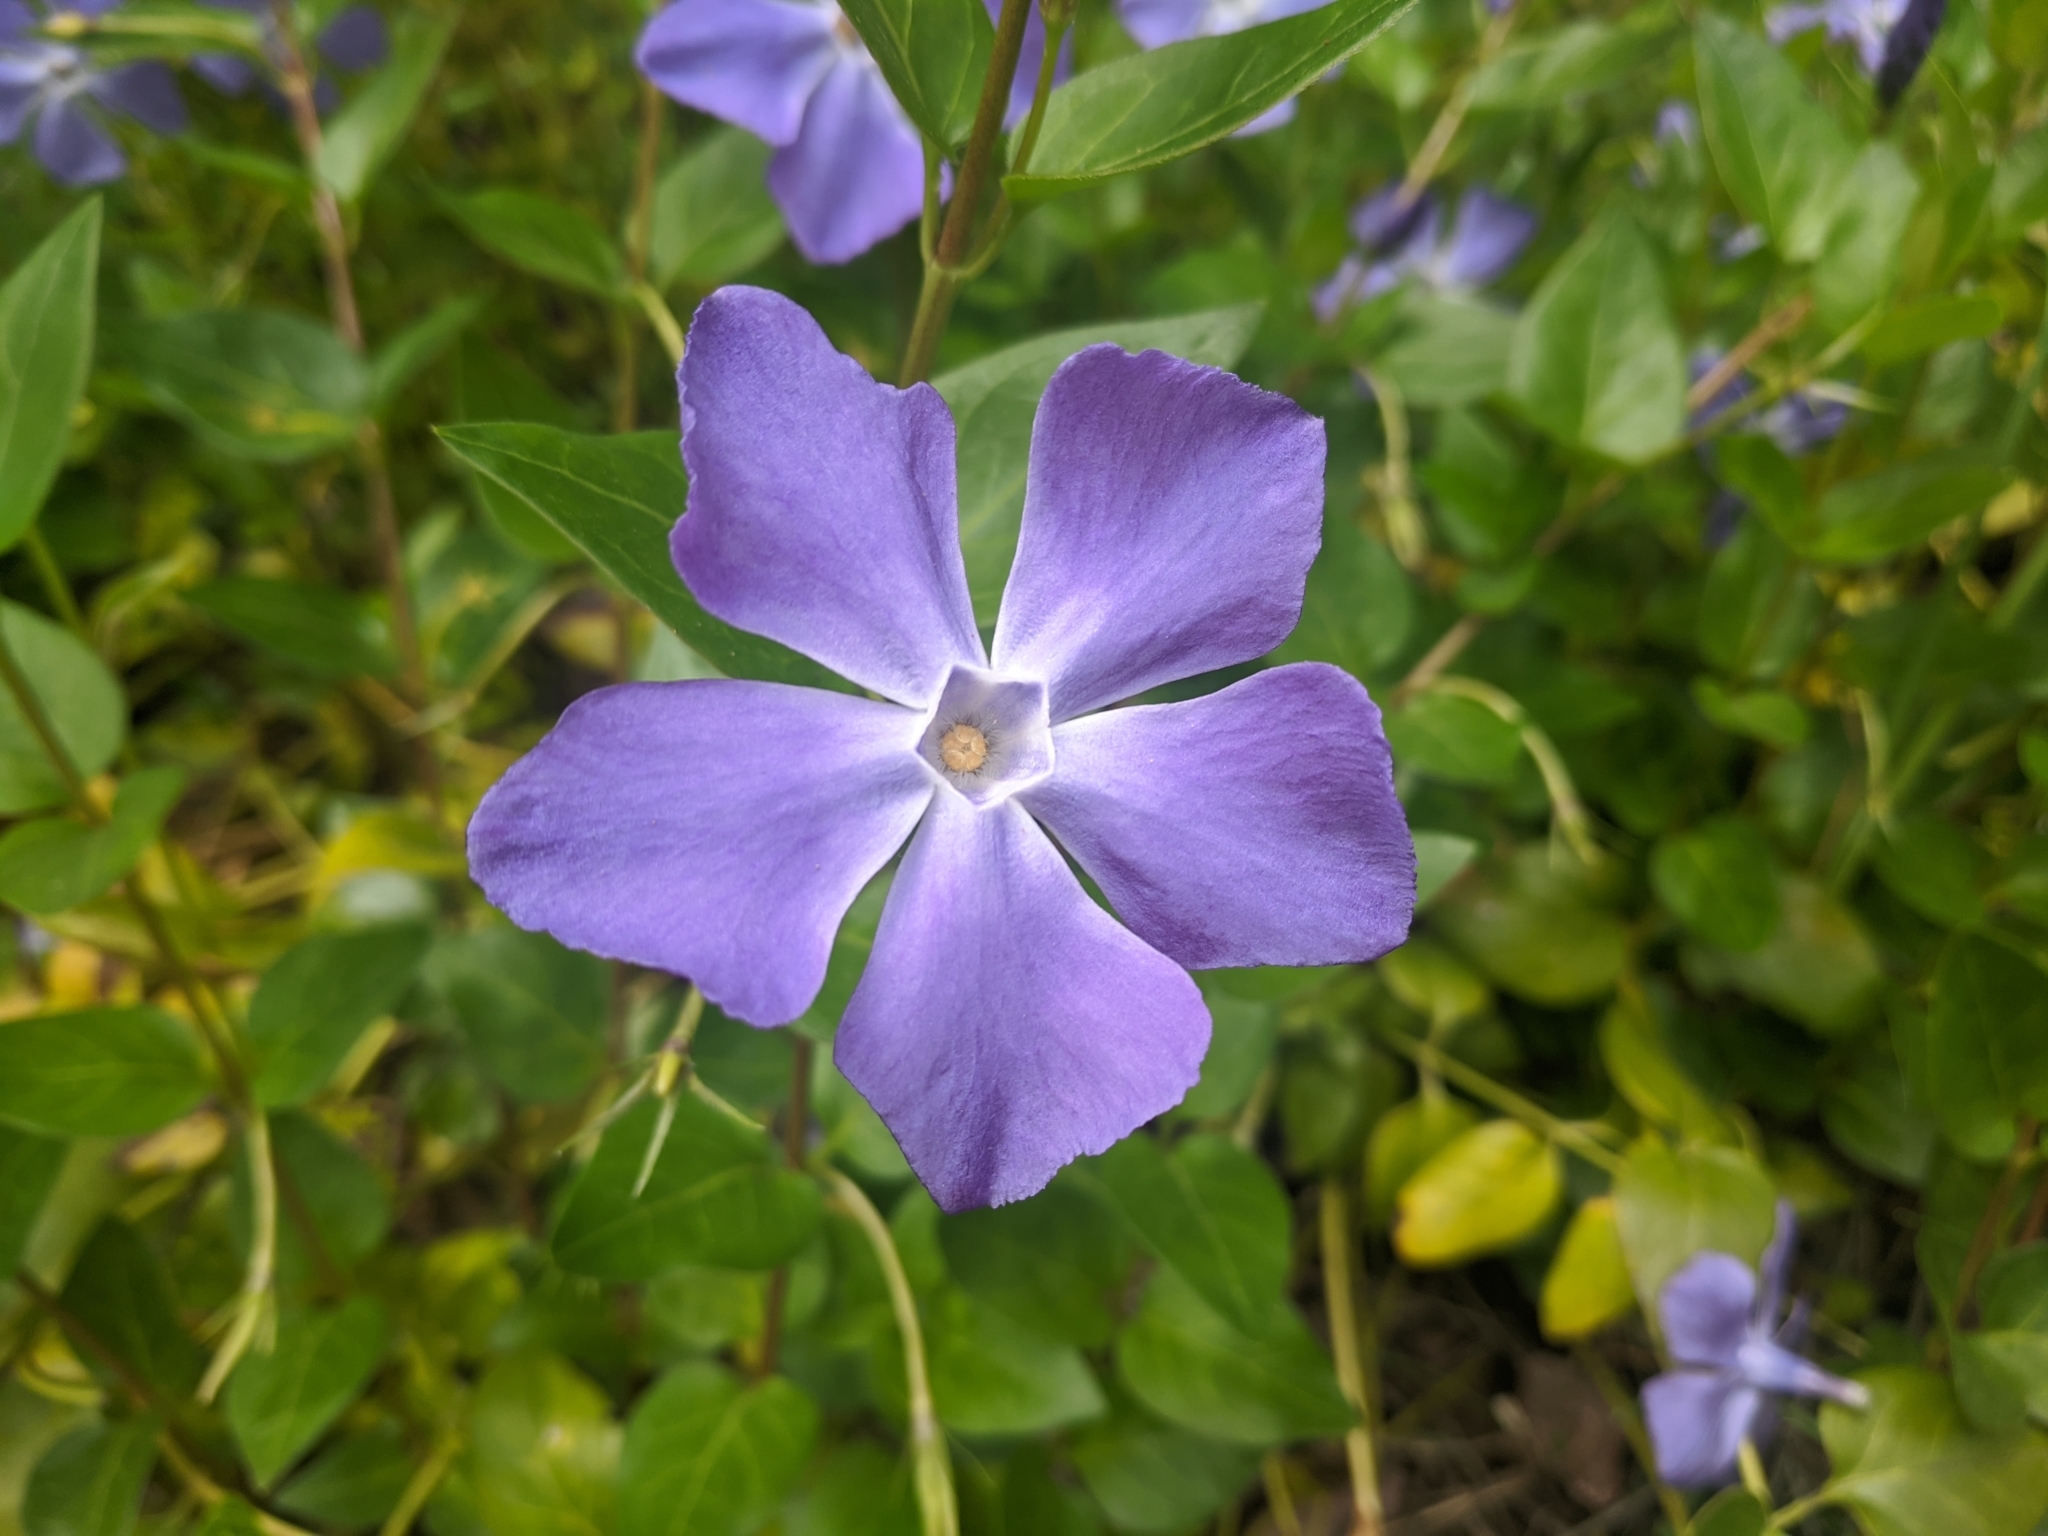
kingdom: Plantae
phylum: Tracheophyta
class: Magnoliopsida
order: Gentianales
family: Apocynaceae
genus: Vinca
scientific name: Vinca major
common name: Greater periwinkle
